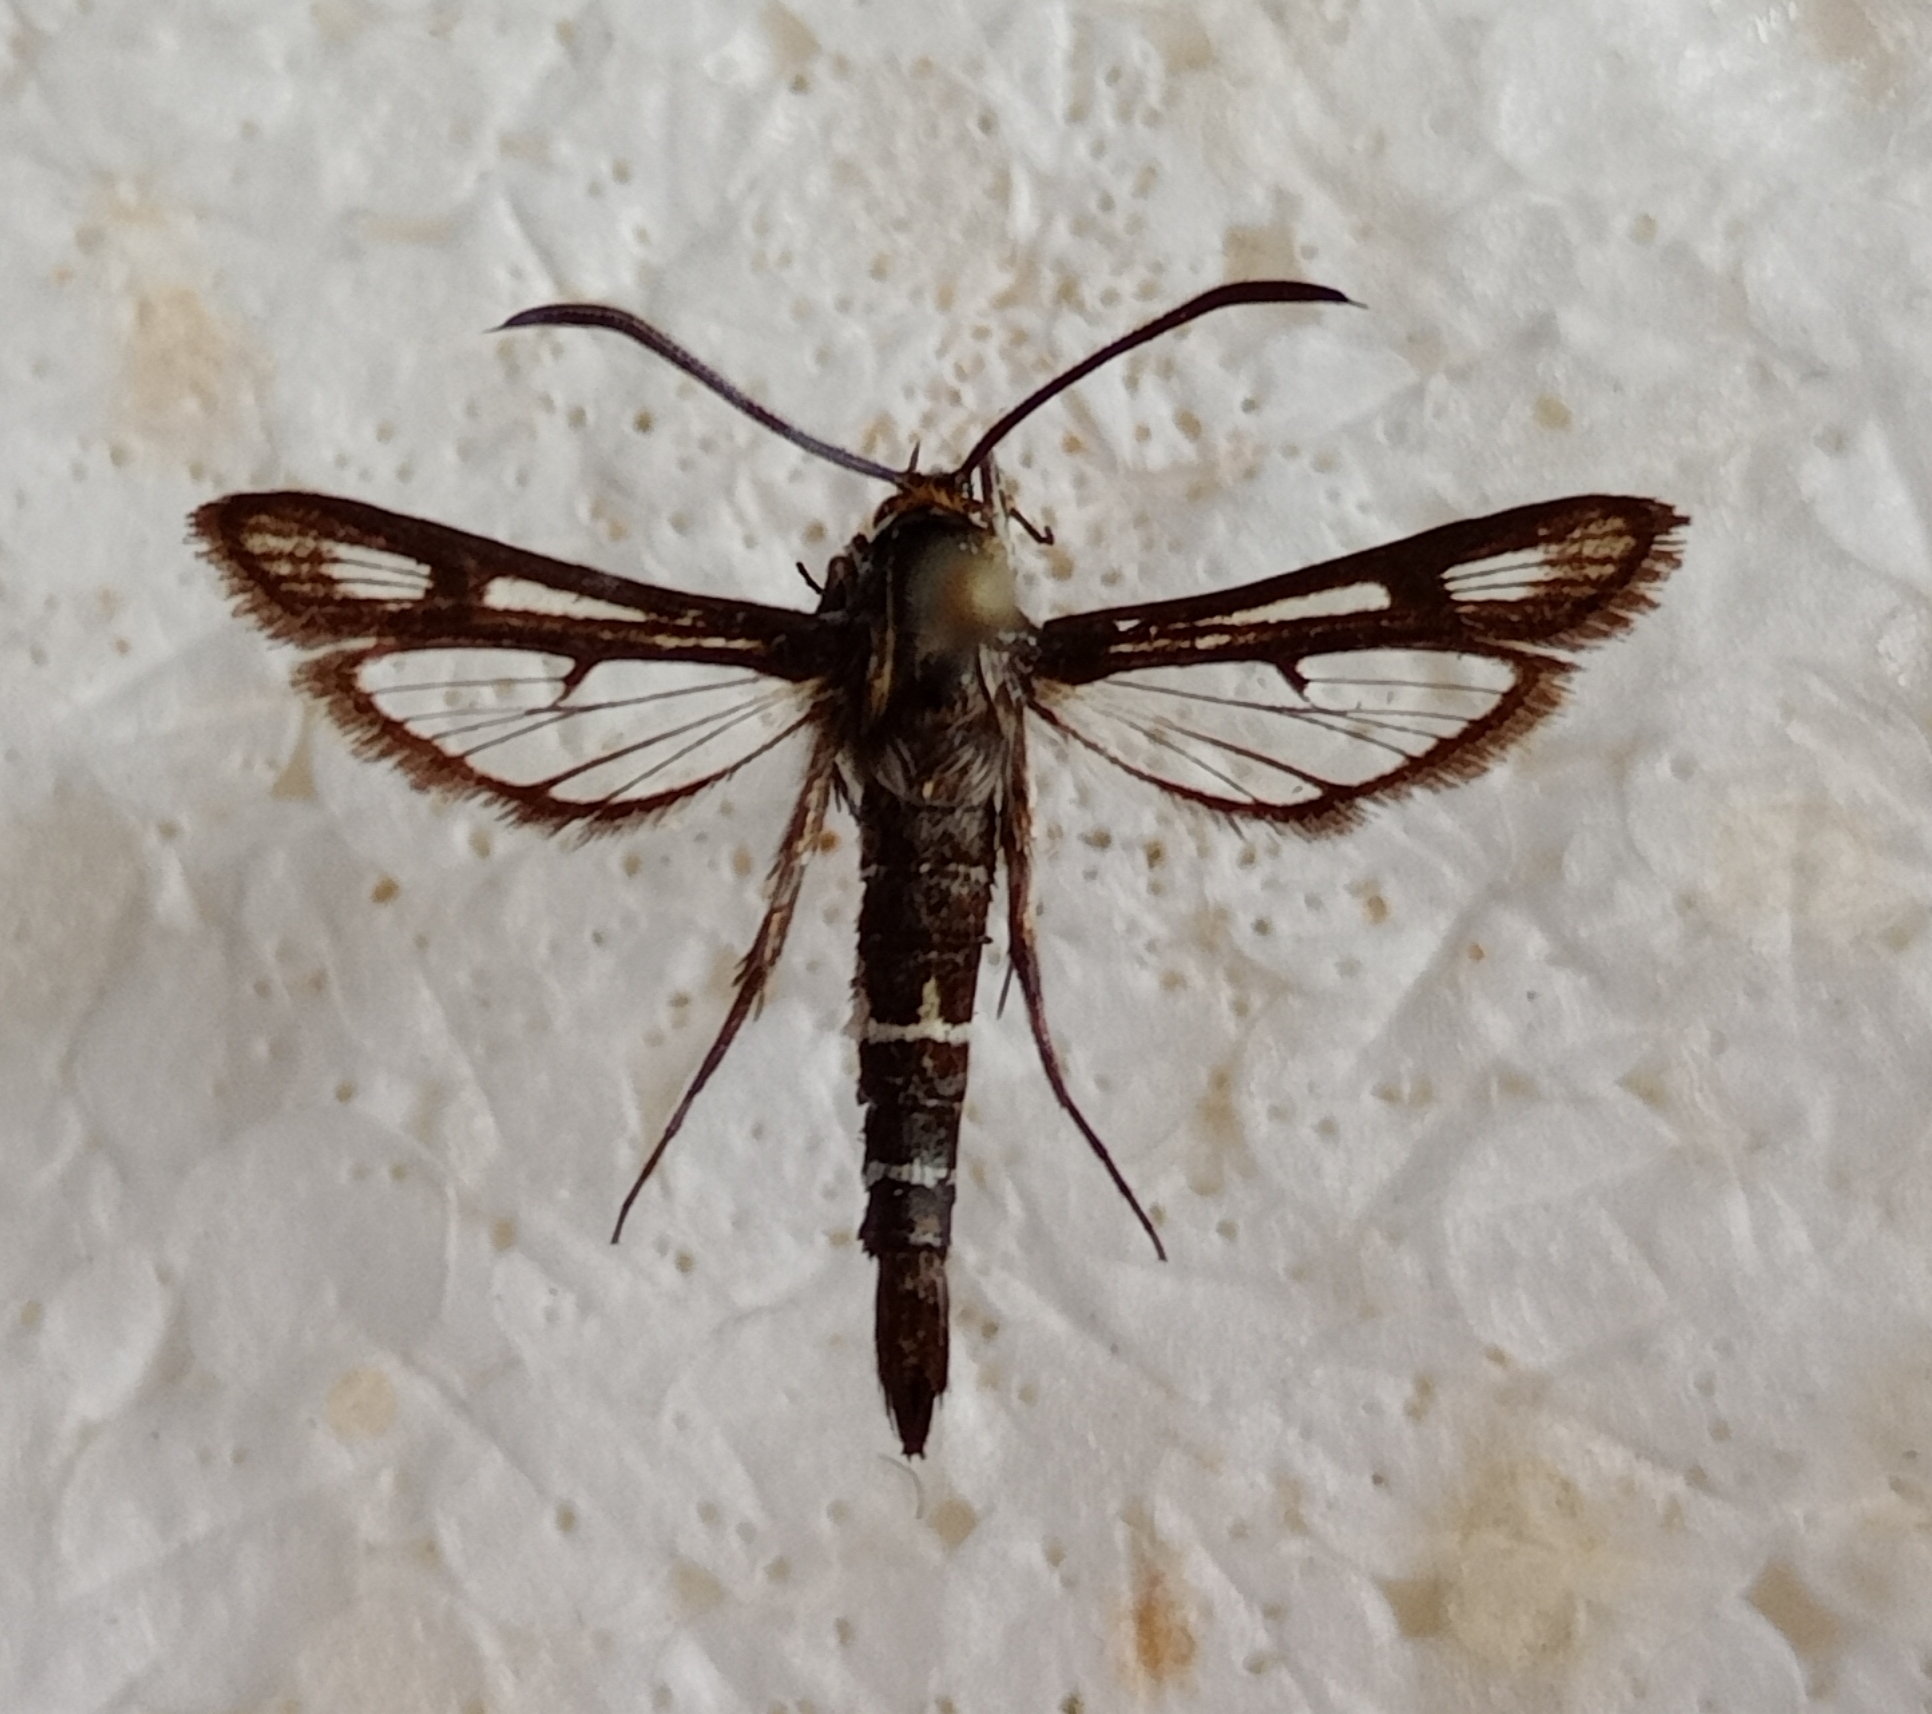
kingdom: Animalia
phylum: Arthropoda
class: Insecta
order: Lepidoptera
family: Sesiidae
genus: Chamaesphecia
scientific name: Chamaesphecia mysiniformis
